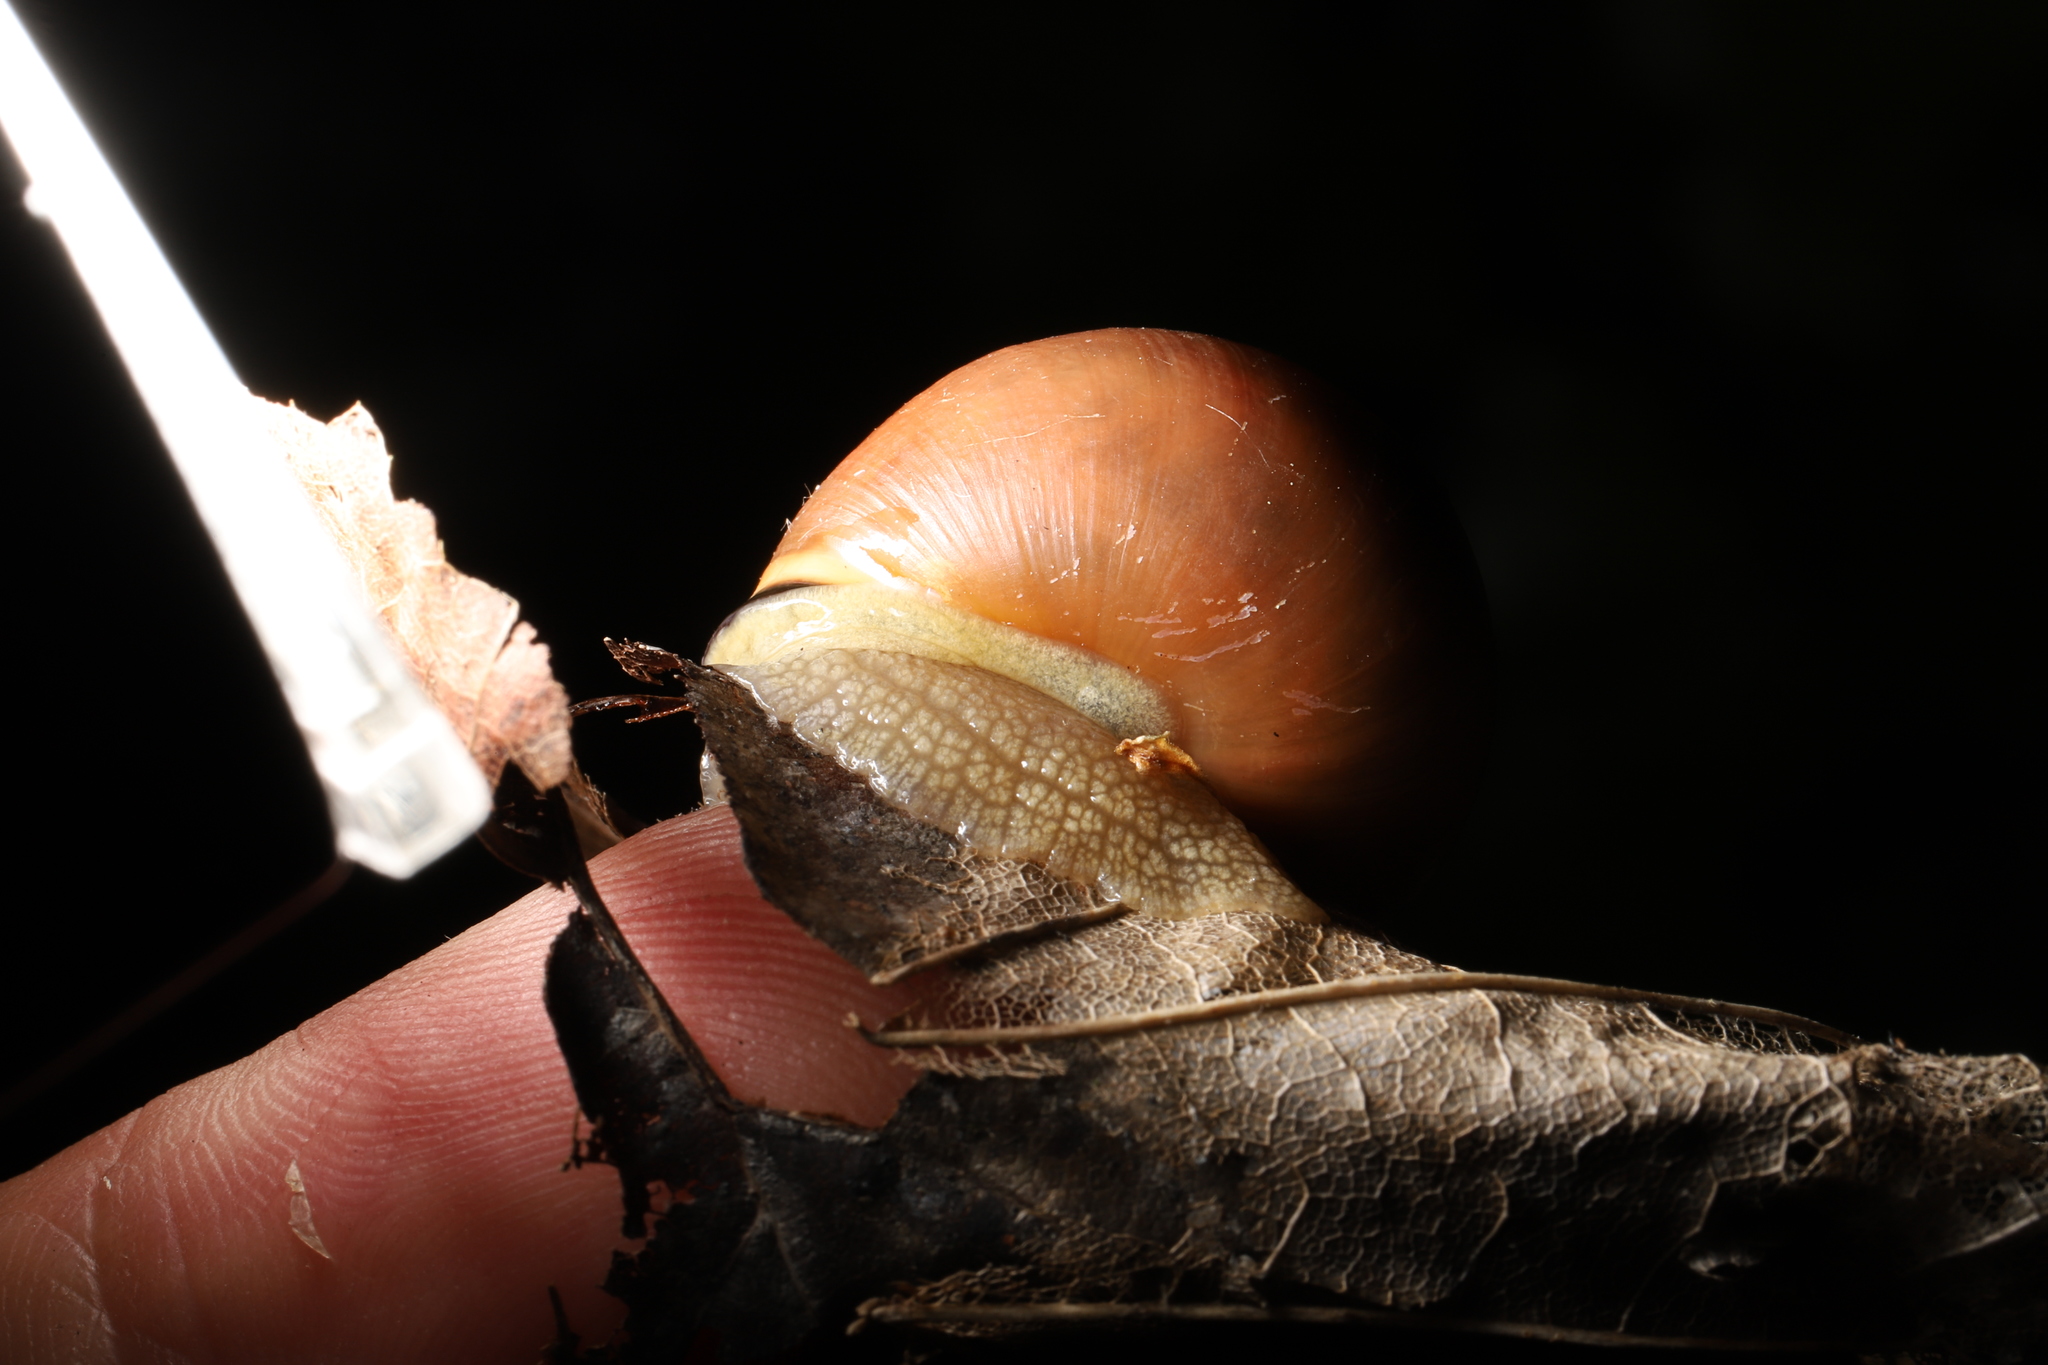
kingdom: Animalia
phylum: Mollusca
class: Gastropoda
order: Stylommatophora
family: Helicidae
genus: Cepaea
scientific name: Cepaea nemoralis
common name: Grovesnail
